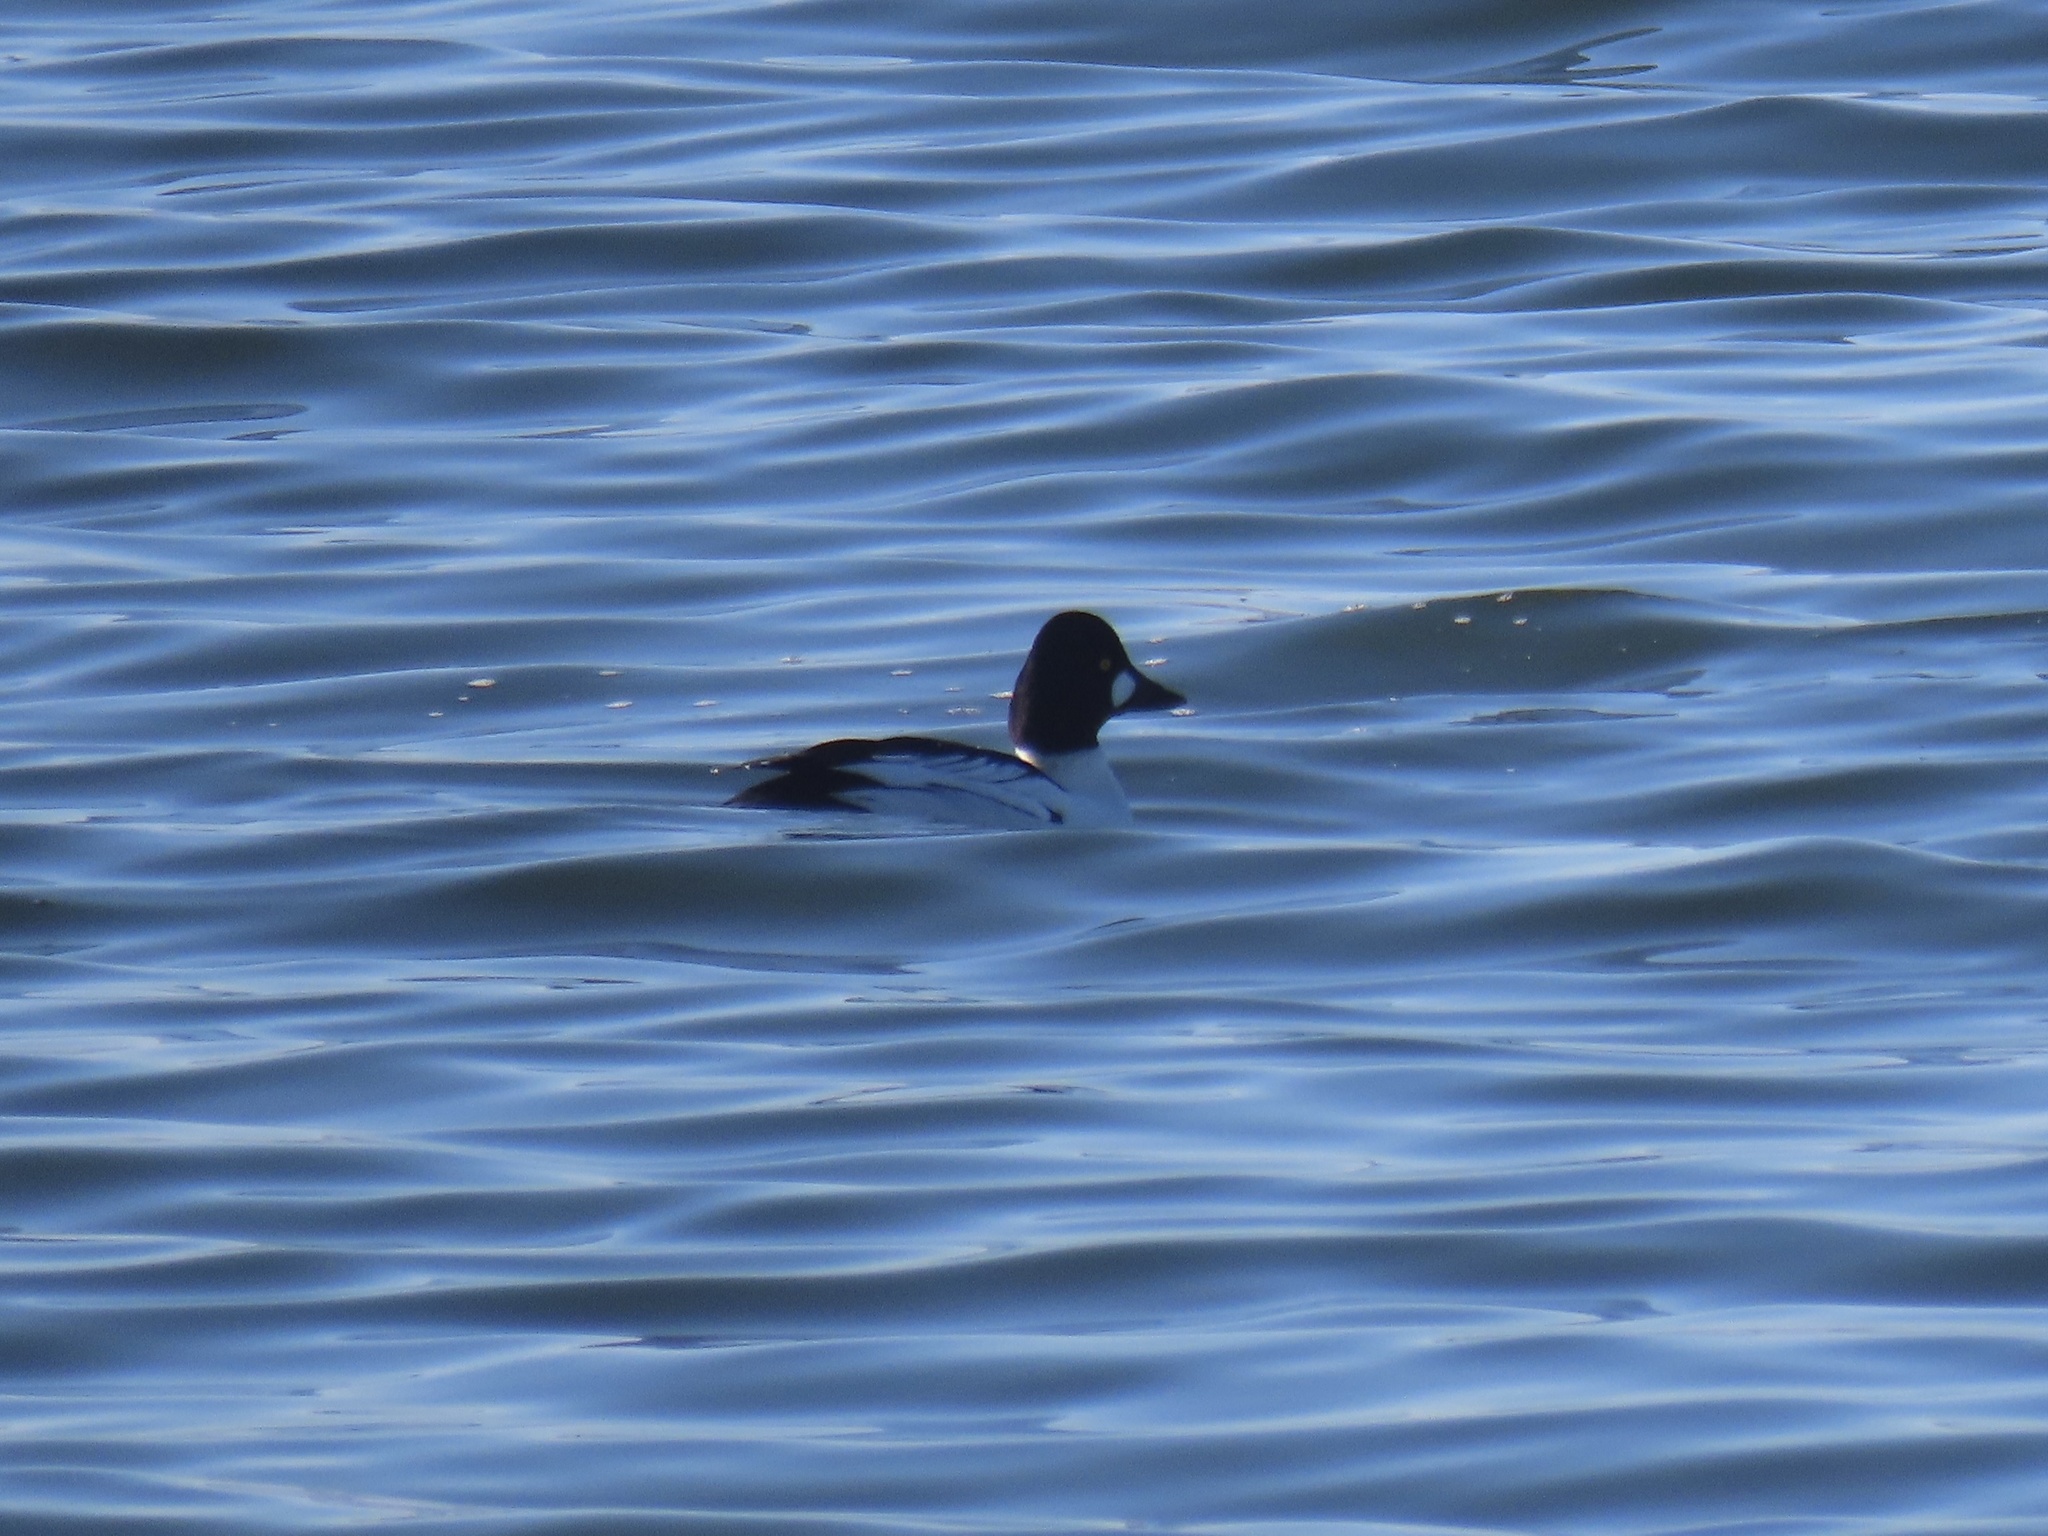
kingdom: Animalia
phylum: Chordata
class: Aves
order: Anseriformes
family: Anatidae
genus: Bucephala
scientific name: Bucephala clangula
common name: Common goldeneye
